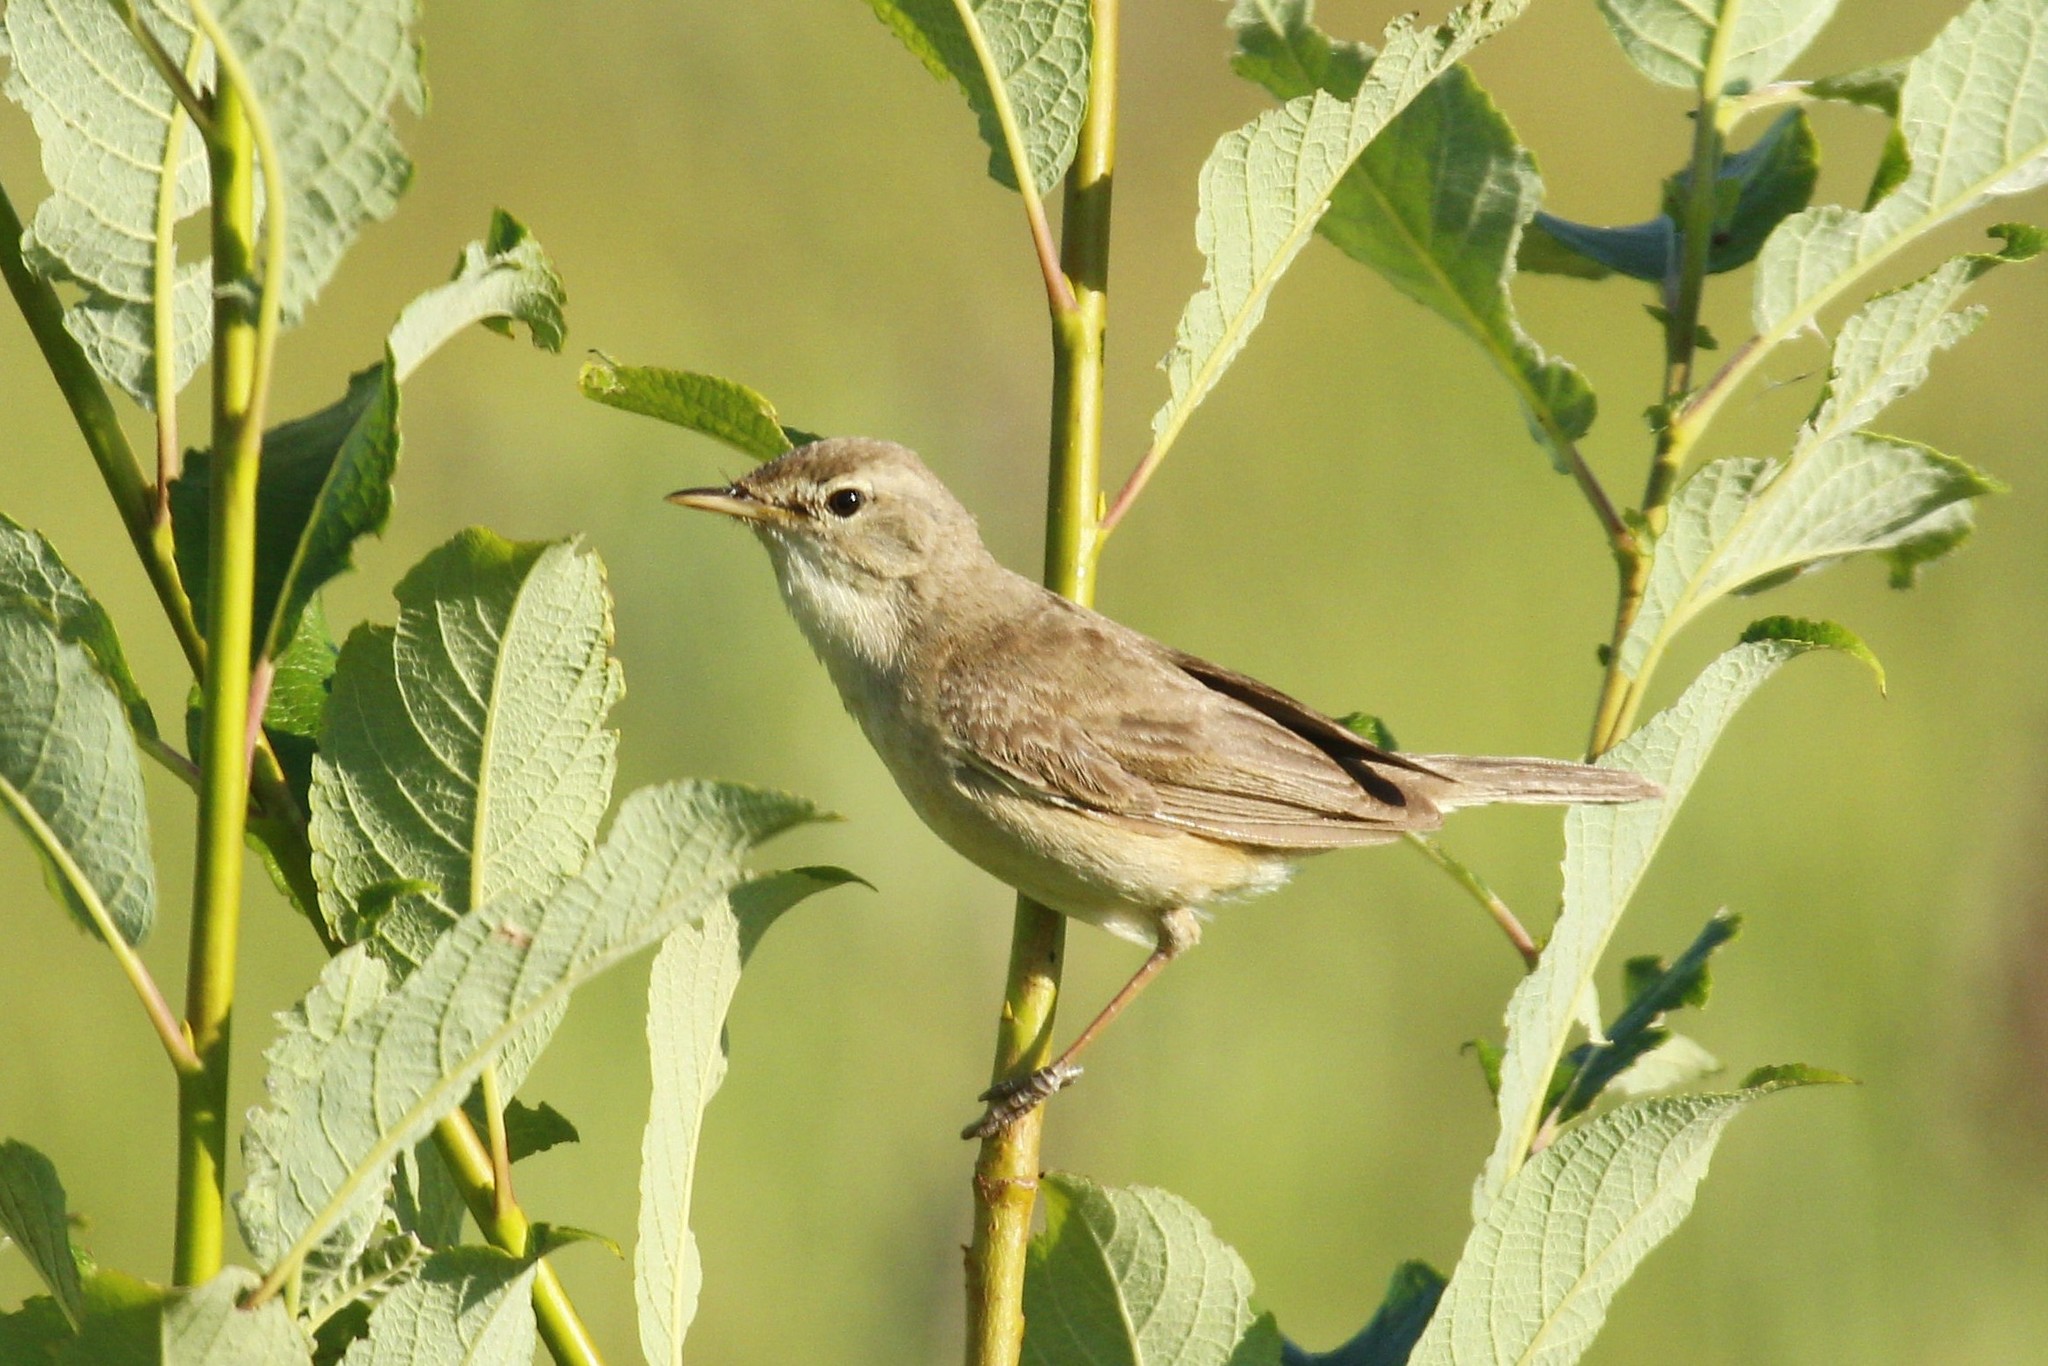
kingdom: Animalia
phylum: Chordata
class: Aves
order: Passeriformes
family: Acrocephalidae
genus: Iduna
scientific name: Iduna caligata
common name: Booted warbler
